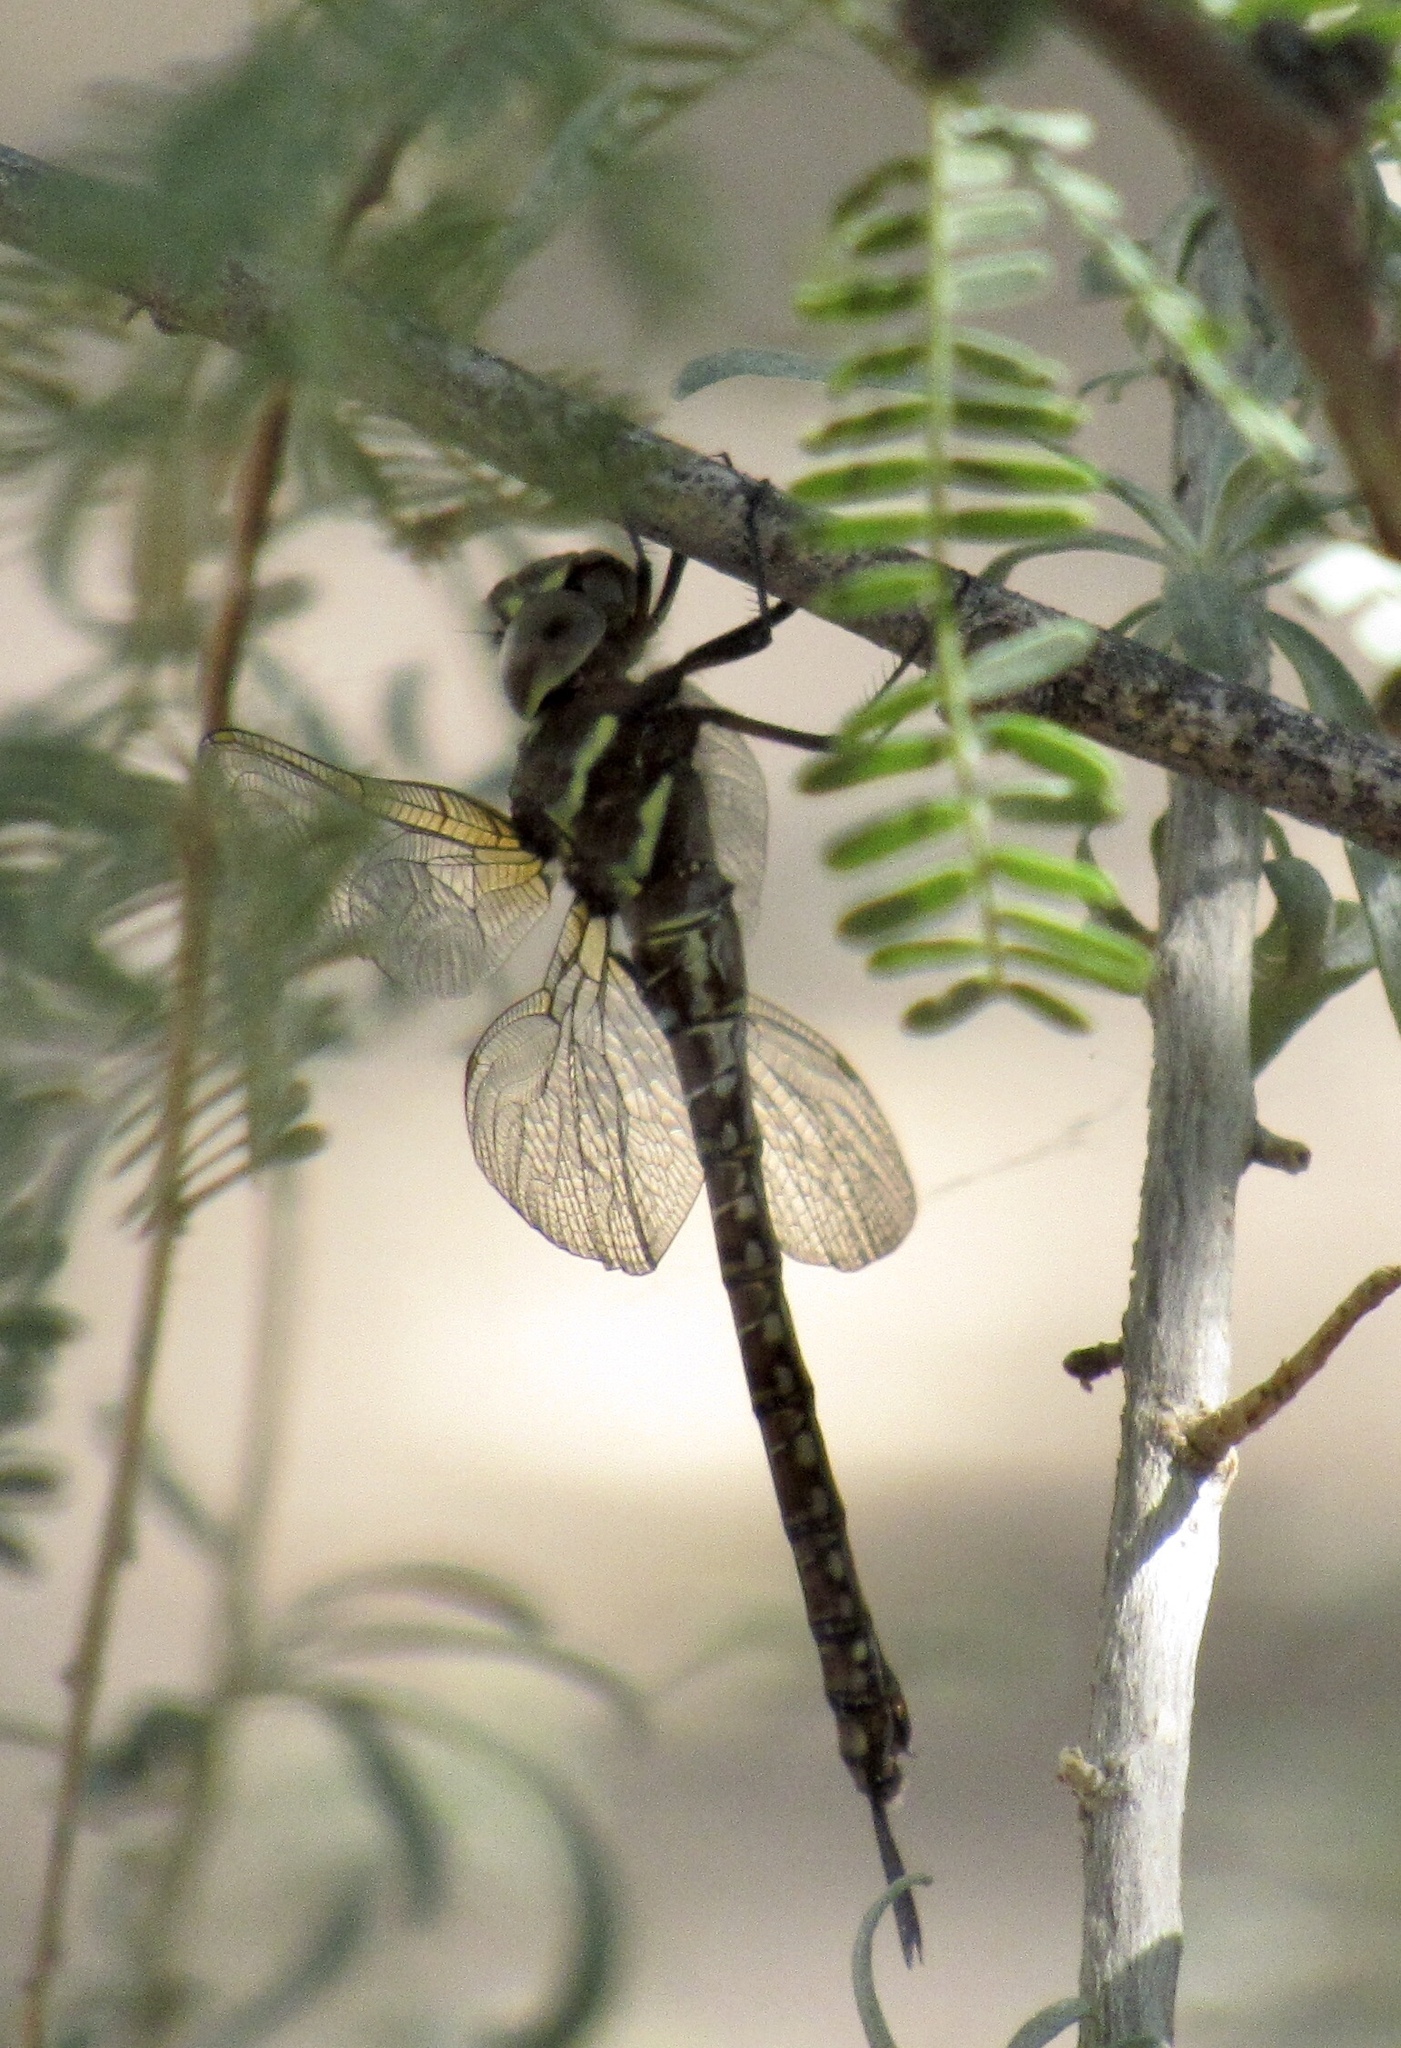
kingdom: Animalia
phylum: Arthropoda
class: Insecta
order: Odonata
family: Aeshnidae
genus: Rhionaeschna
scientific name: Rhionaeschna psilus
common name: Turquoise-tipped darner
